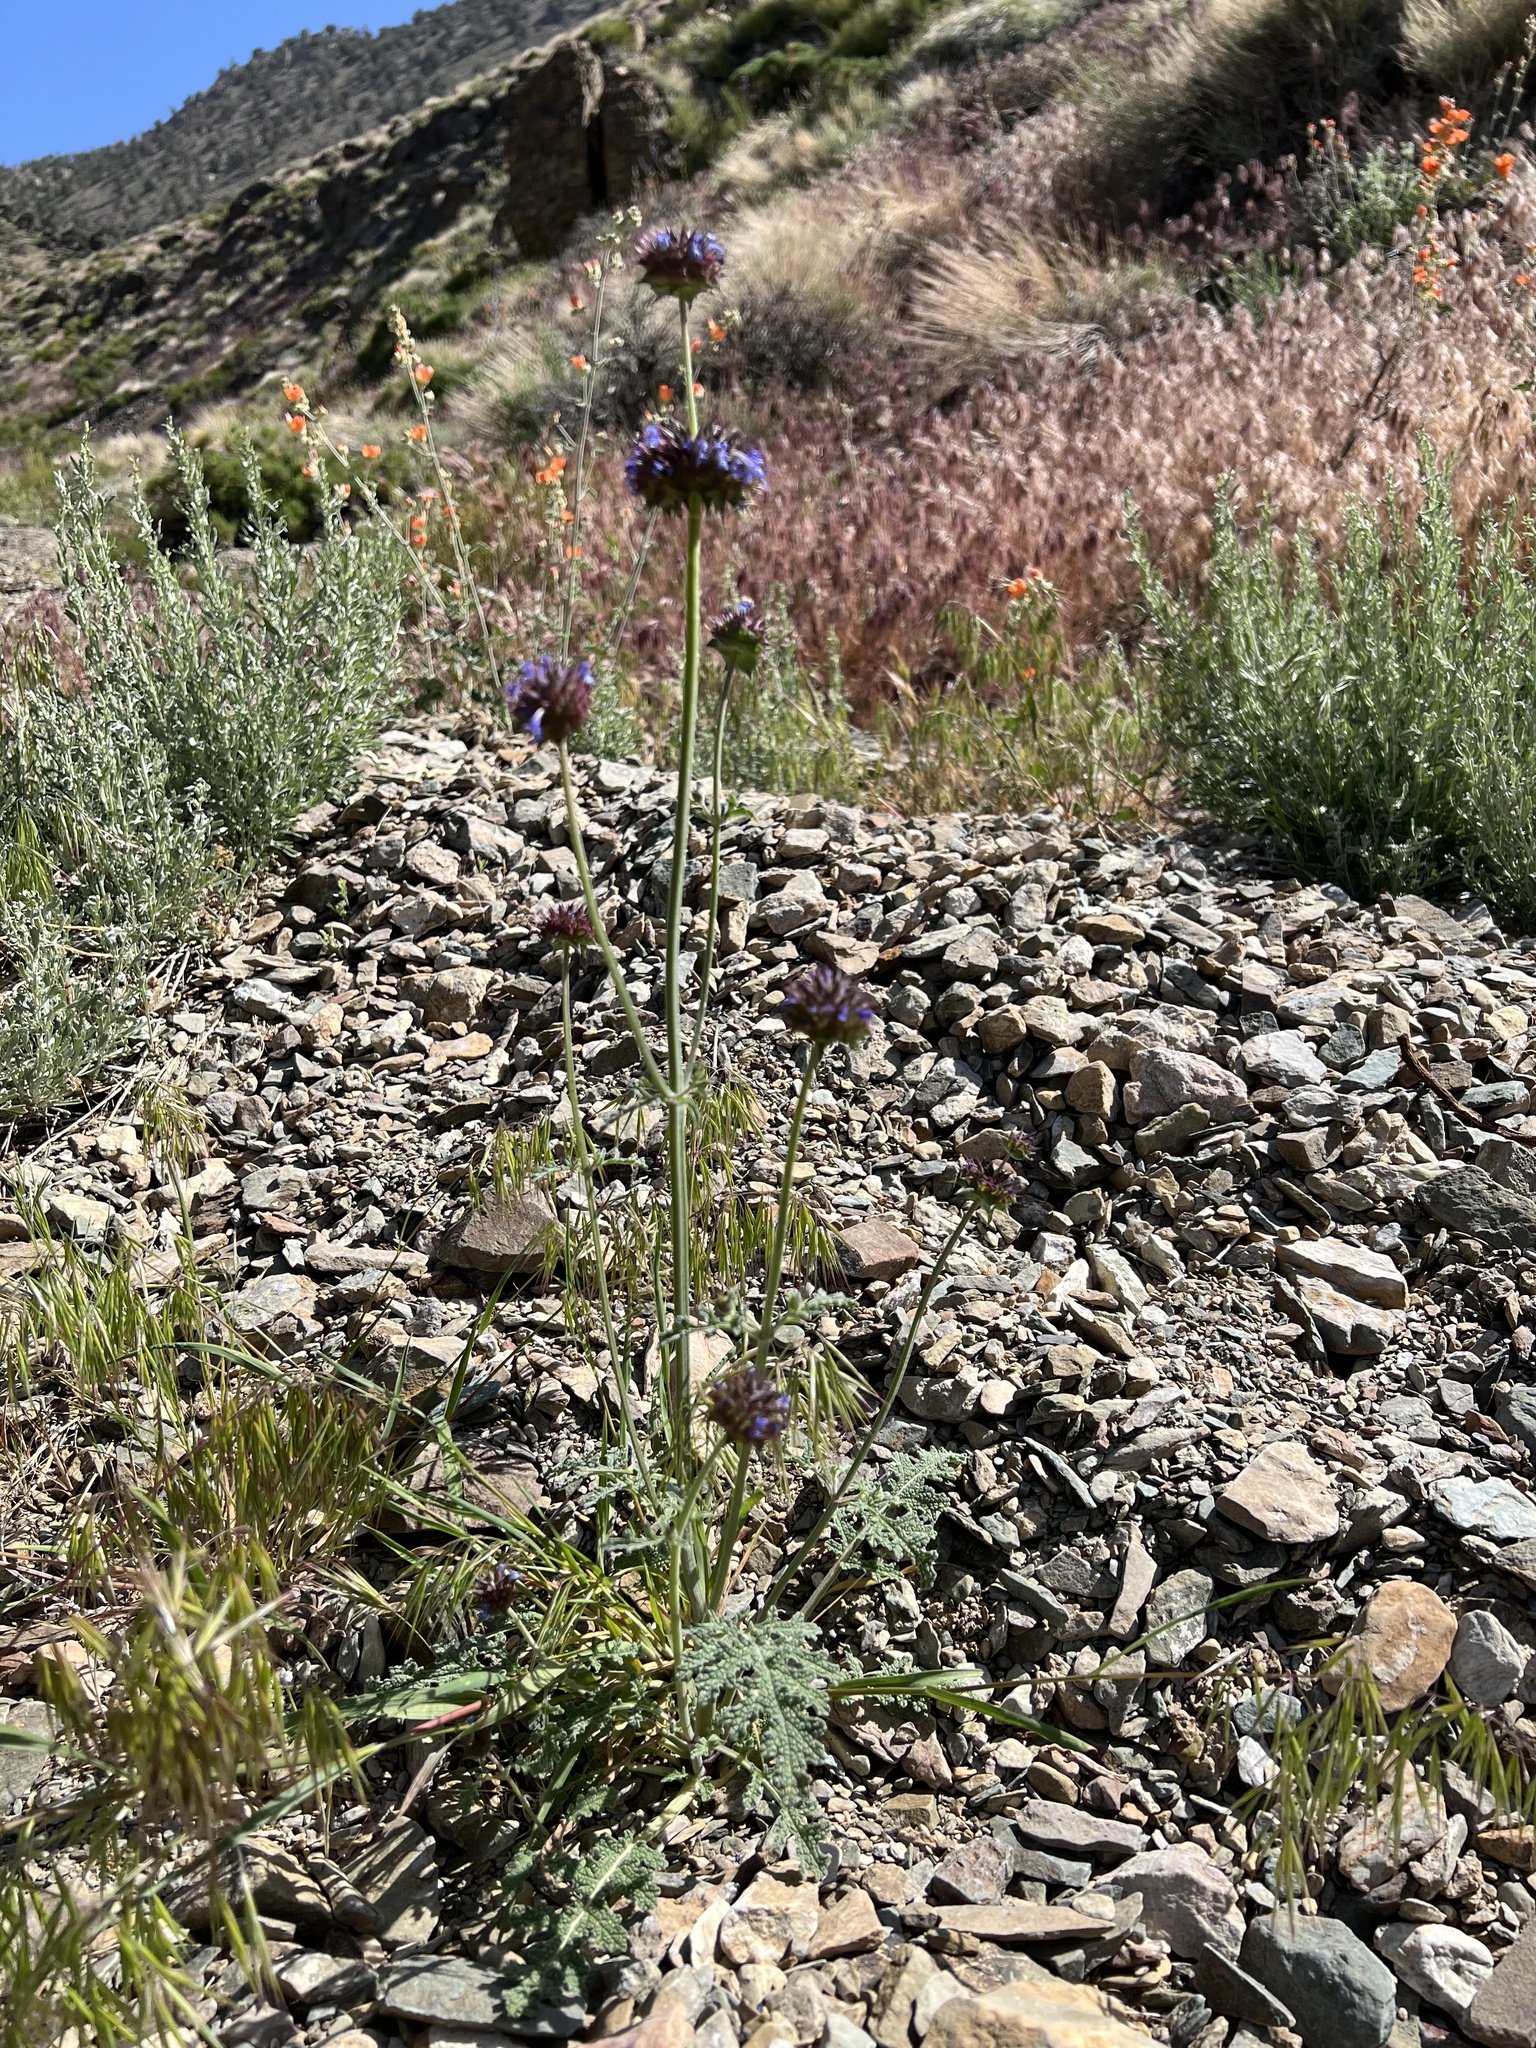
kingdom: Plantae
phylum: Tracheophyta
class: Magnoliopsida
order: Lamiales
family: Lamiaceae
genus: Salvia
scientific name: Salvia columbariae
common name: Chia
